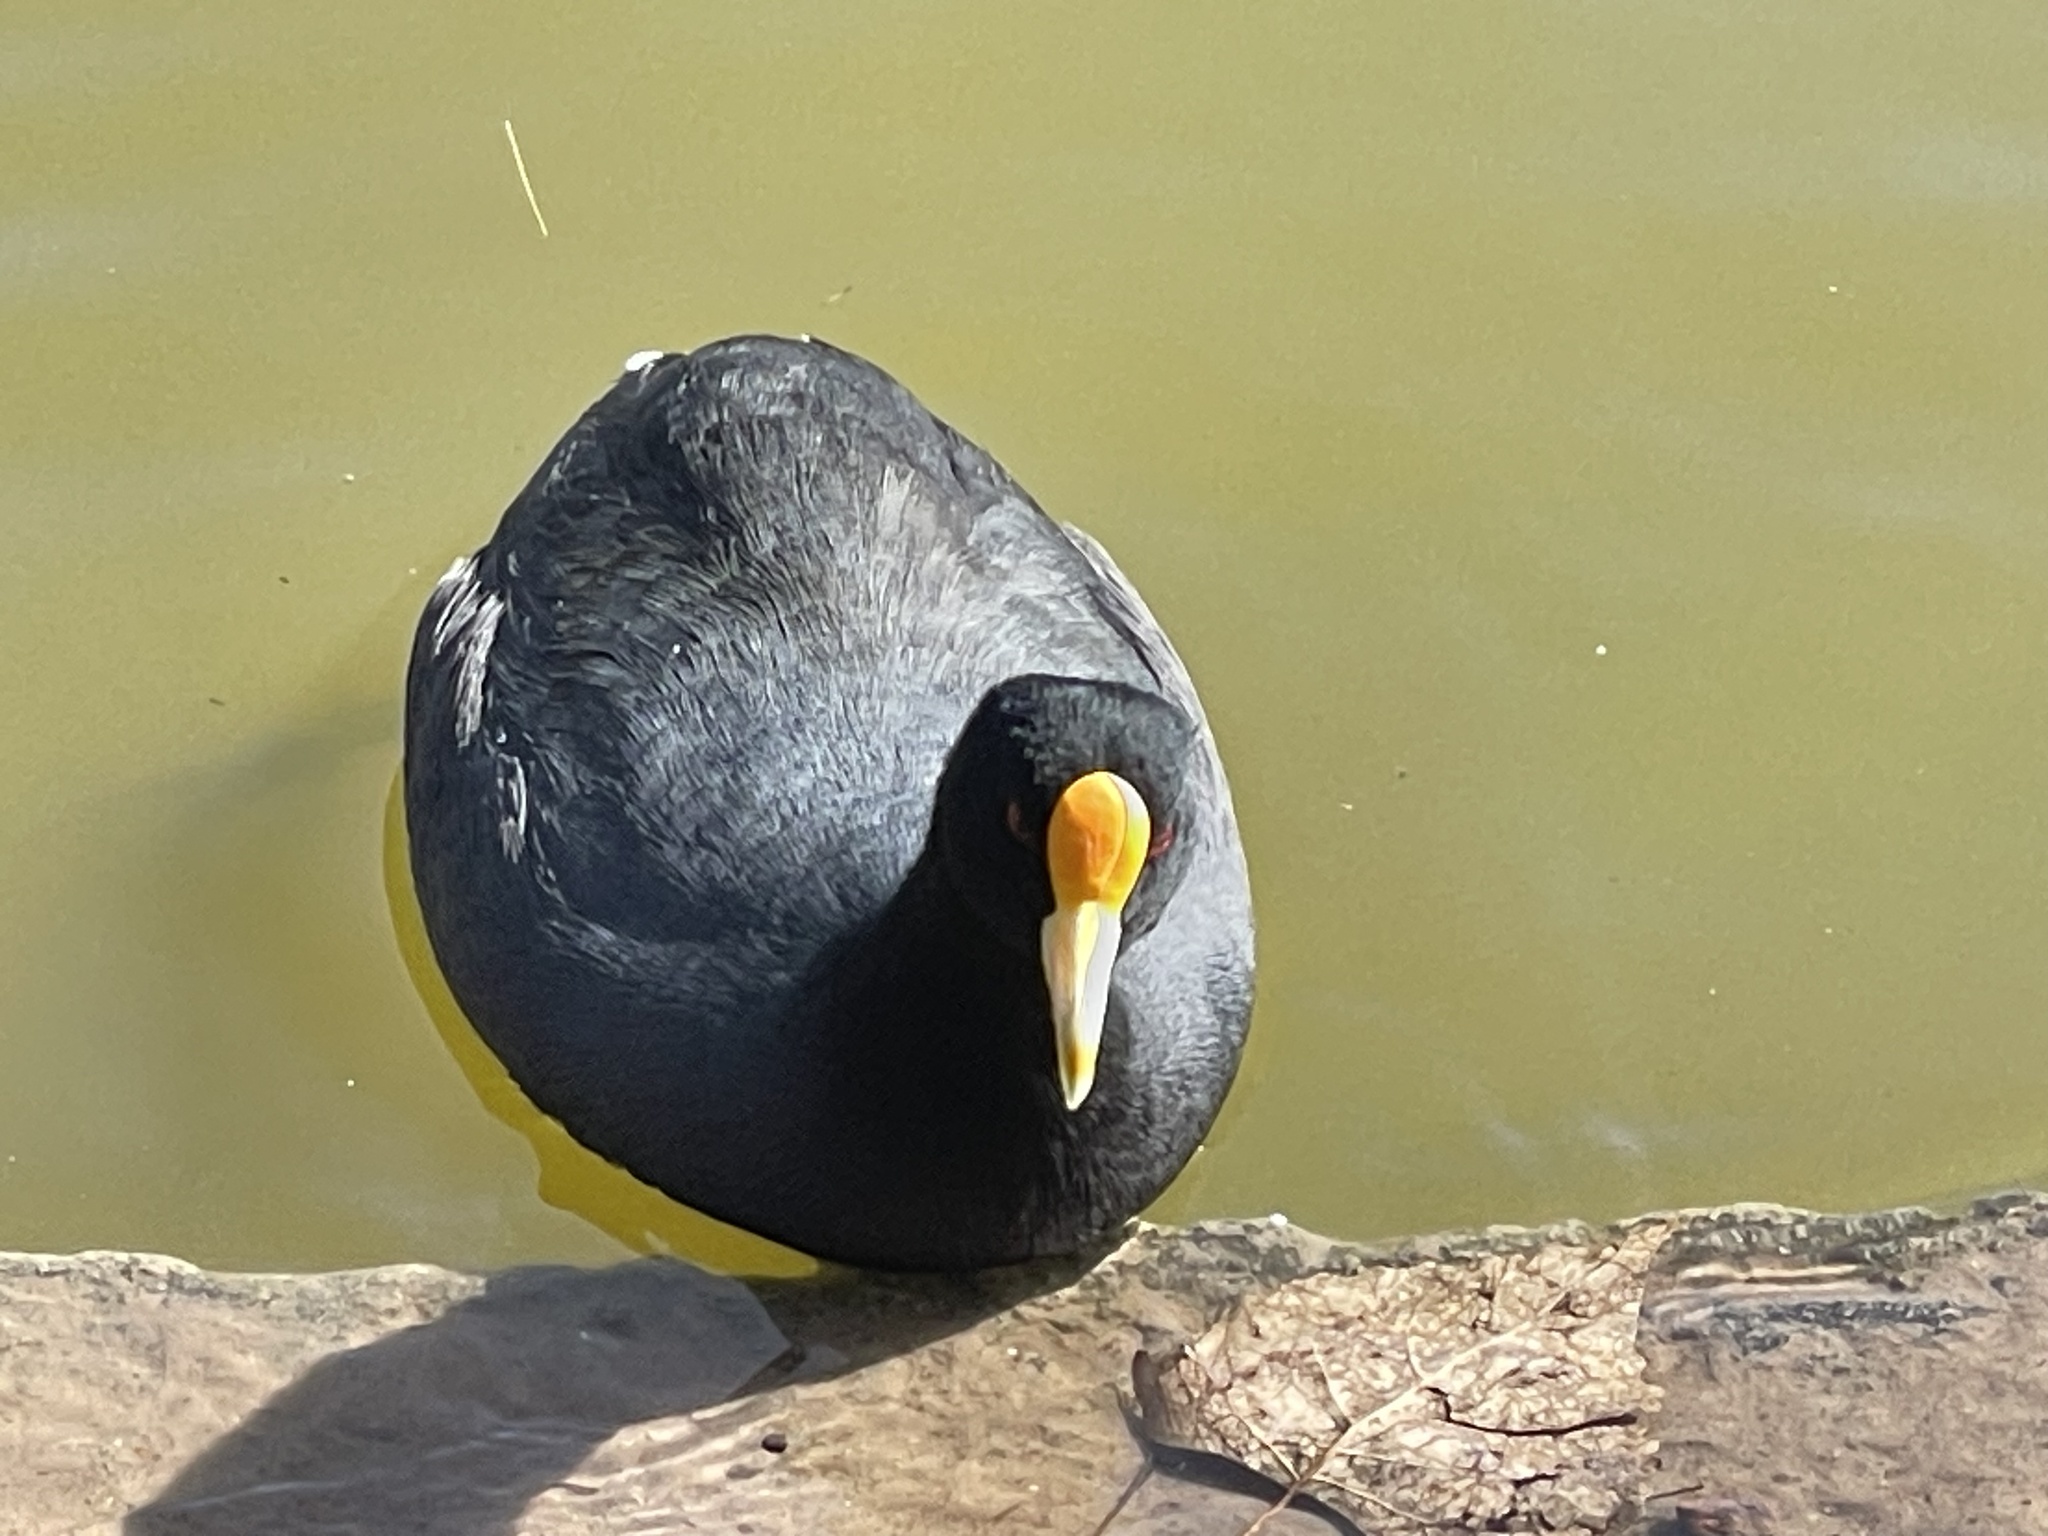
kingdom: Animalia
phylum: Chordata
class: Aves
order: Gruiformes
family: Rallidae
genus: Fulica
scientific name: Fulica leucoptera
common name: White-winged coot
